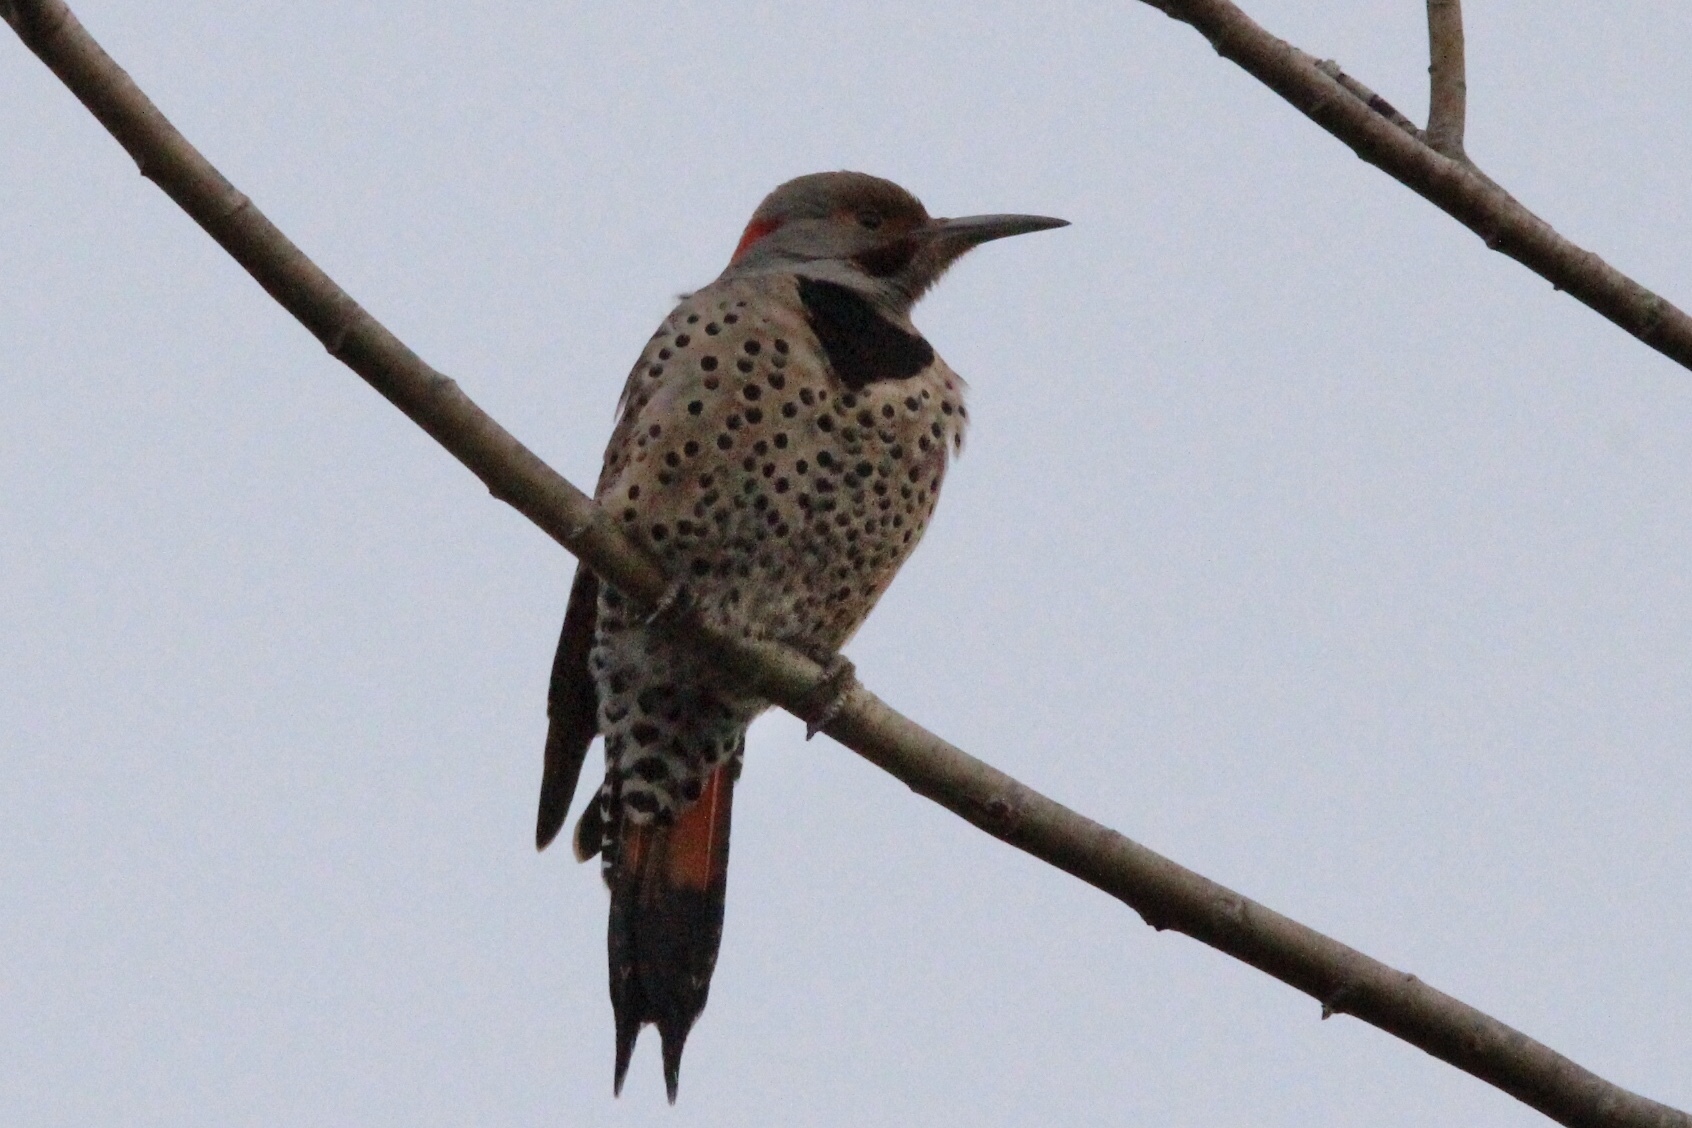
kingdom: Animalia
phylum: Chordata
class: Aves
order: Piciformes
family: Picidae
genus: Colaptes
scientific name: Colaptes
